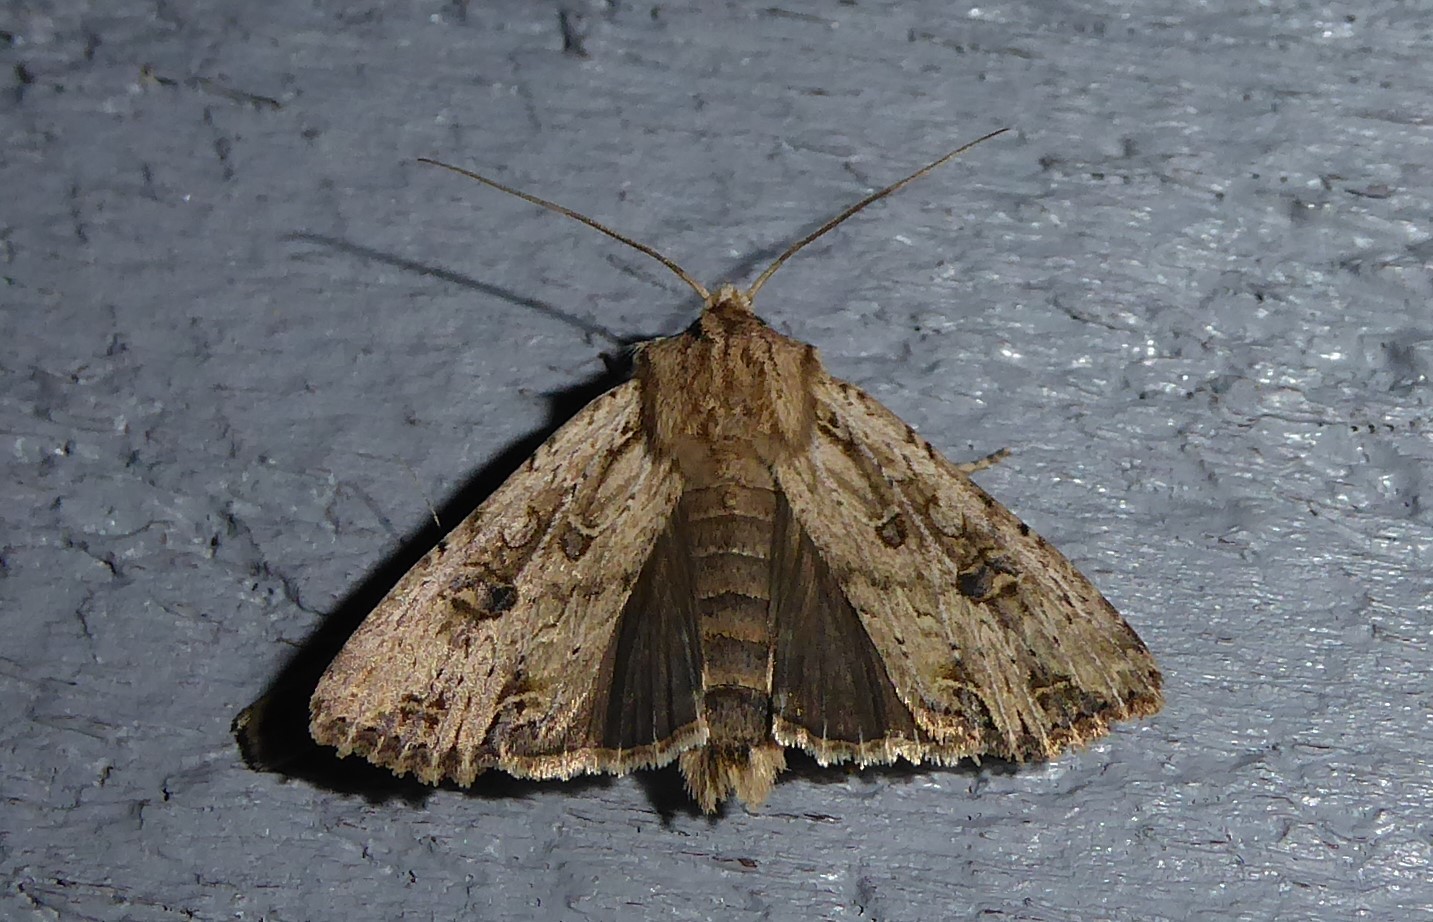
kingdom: Animalia
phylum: Arthropoda
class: Insecta
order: Lepidoptera
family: Noctuidae
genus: Ichneutica
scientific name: Ichneutica lignana
